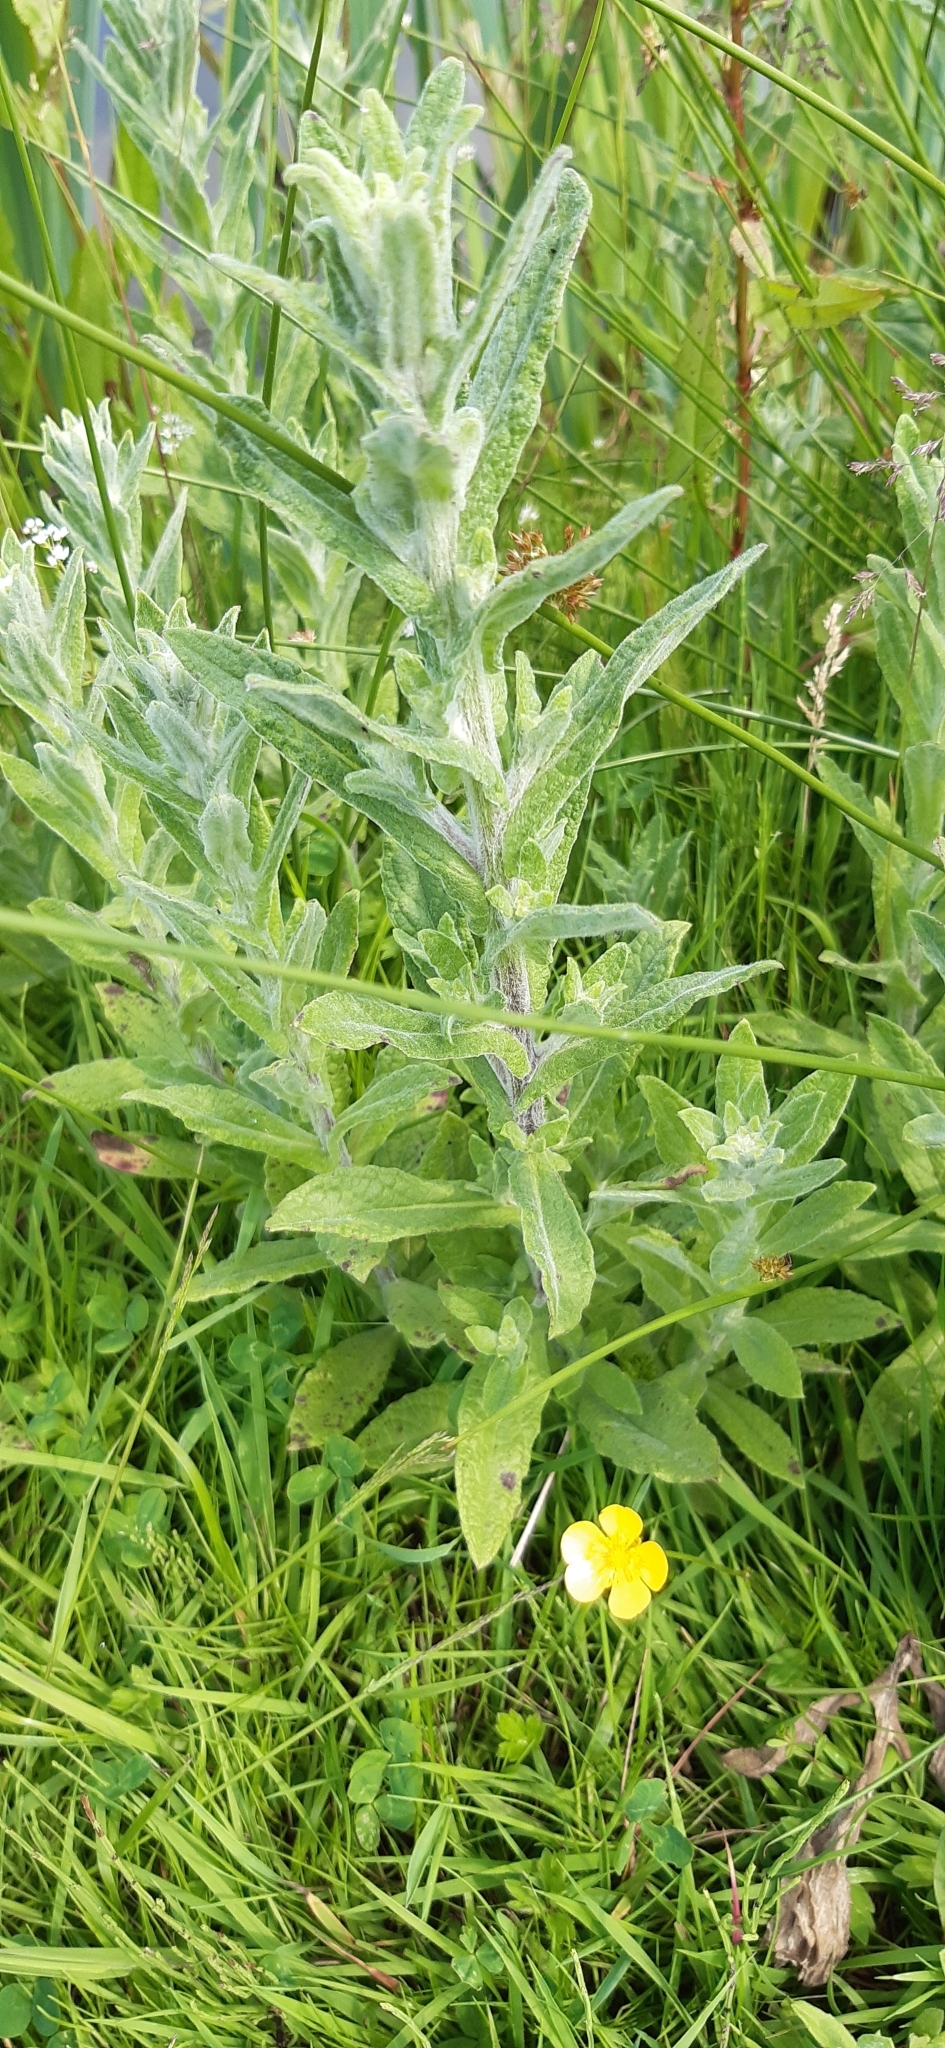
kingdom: Plantae
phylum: Tracheophyta
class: Magnoliopsida
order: Asterales
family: Asteraceae
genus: Pulicaria
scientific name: Pulicaria dysenterica
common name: Common fleabane
